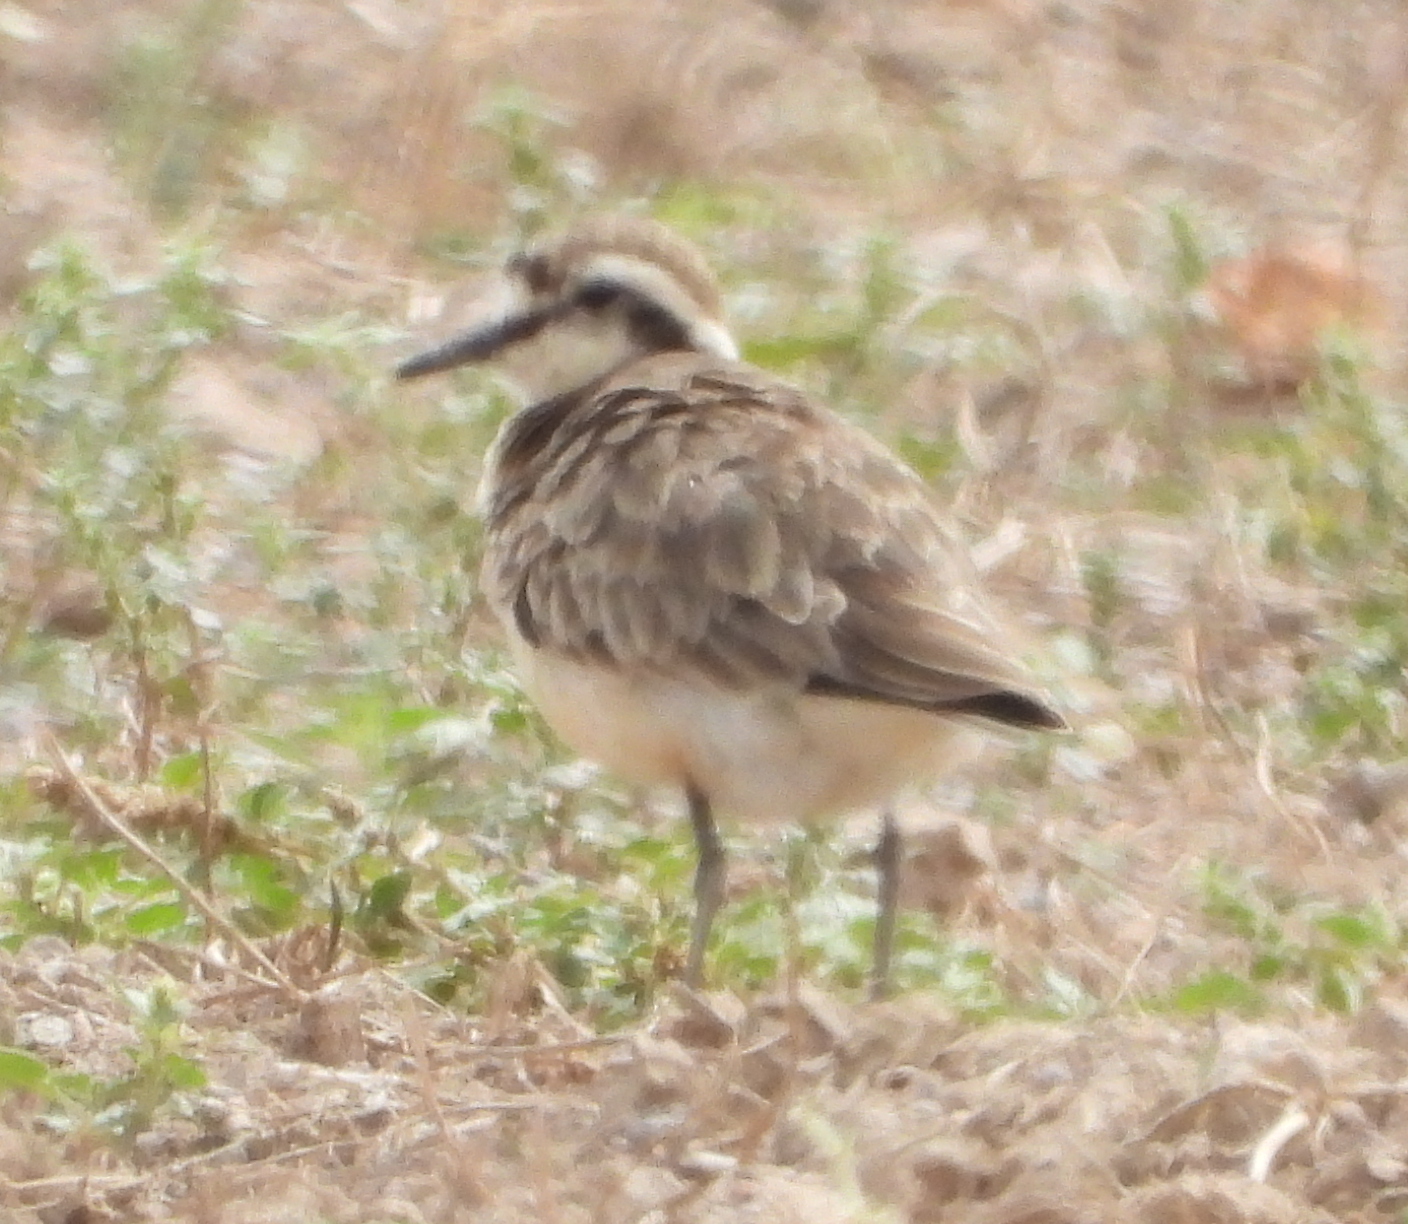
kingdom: Animalia
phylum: Chordata
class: Aves
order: Charadriiformes
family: Charadriidae
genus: Anarhynchus
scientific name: Anarhynchus
